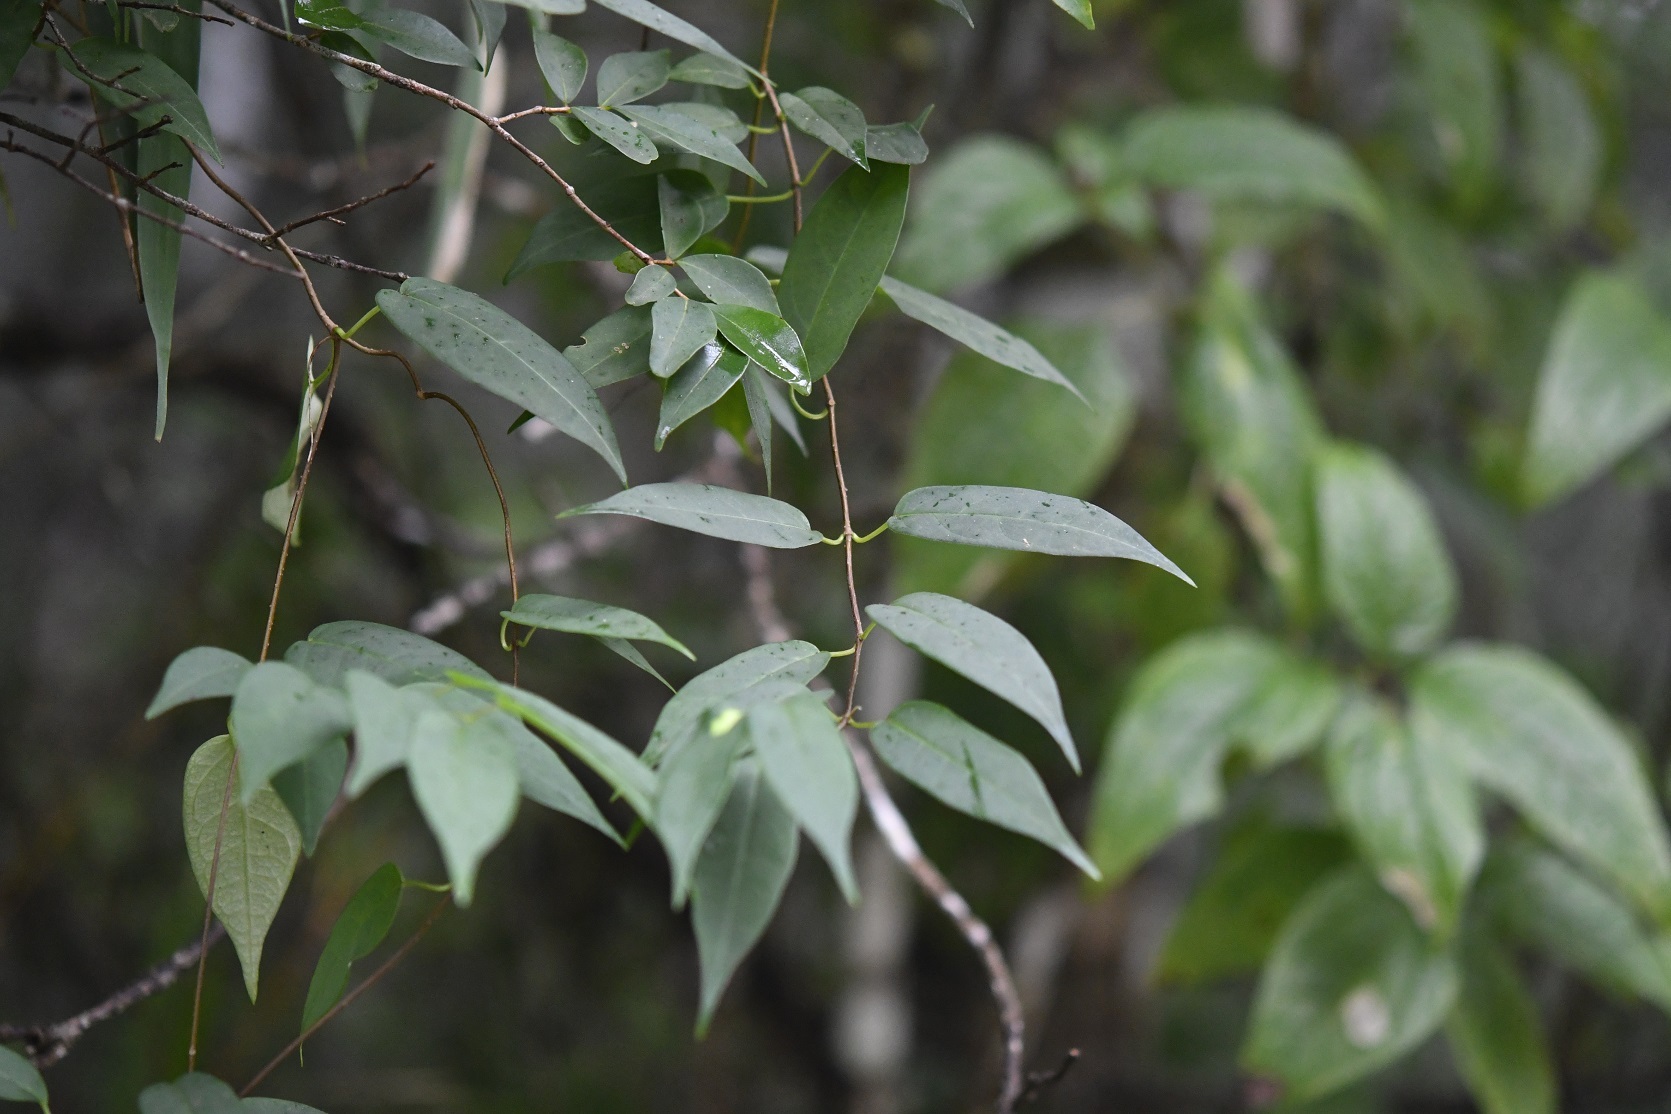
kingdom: Plantae
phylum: Tracheophyta
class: Magnoliopsida
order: Gentianales
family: Apocynaceae
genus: Ruehssia
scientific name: Ruehssia sumiderensis
